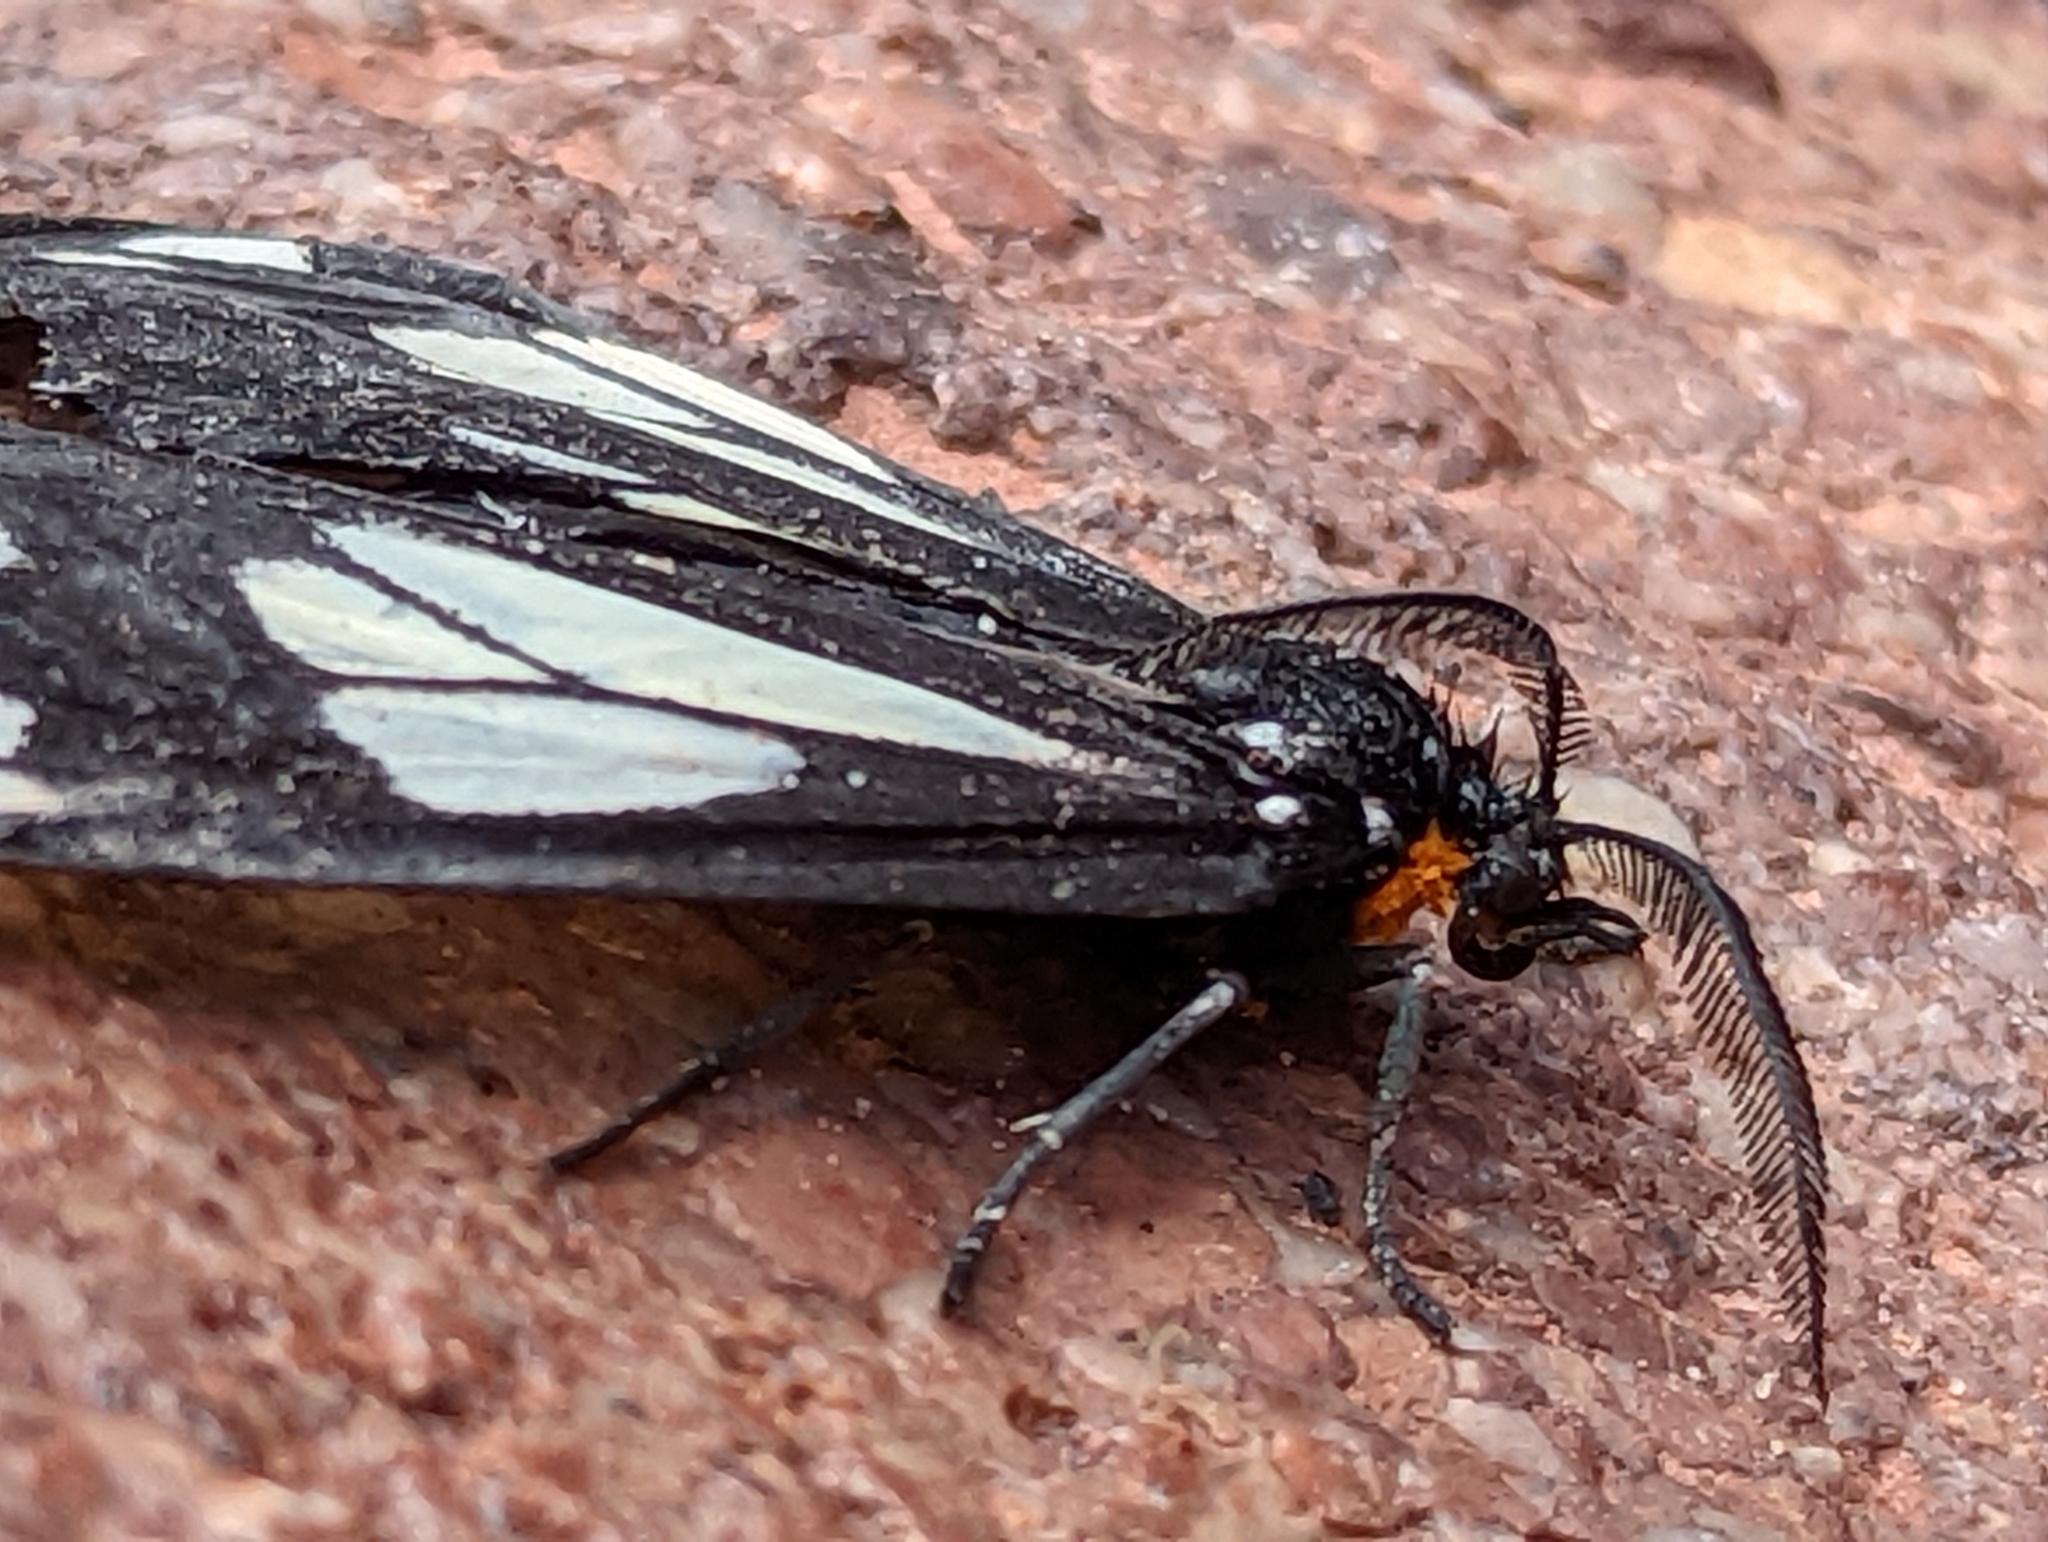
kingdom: Animalia
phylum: Arthropoda
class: Insecta
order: Lepidoptera
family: Erebidae
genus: Gnophaela
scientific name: Gnophaela vermiculata
